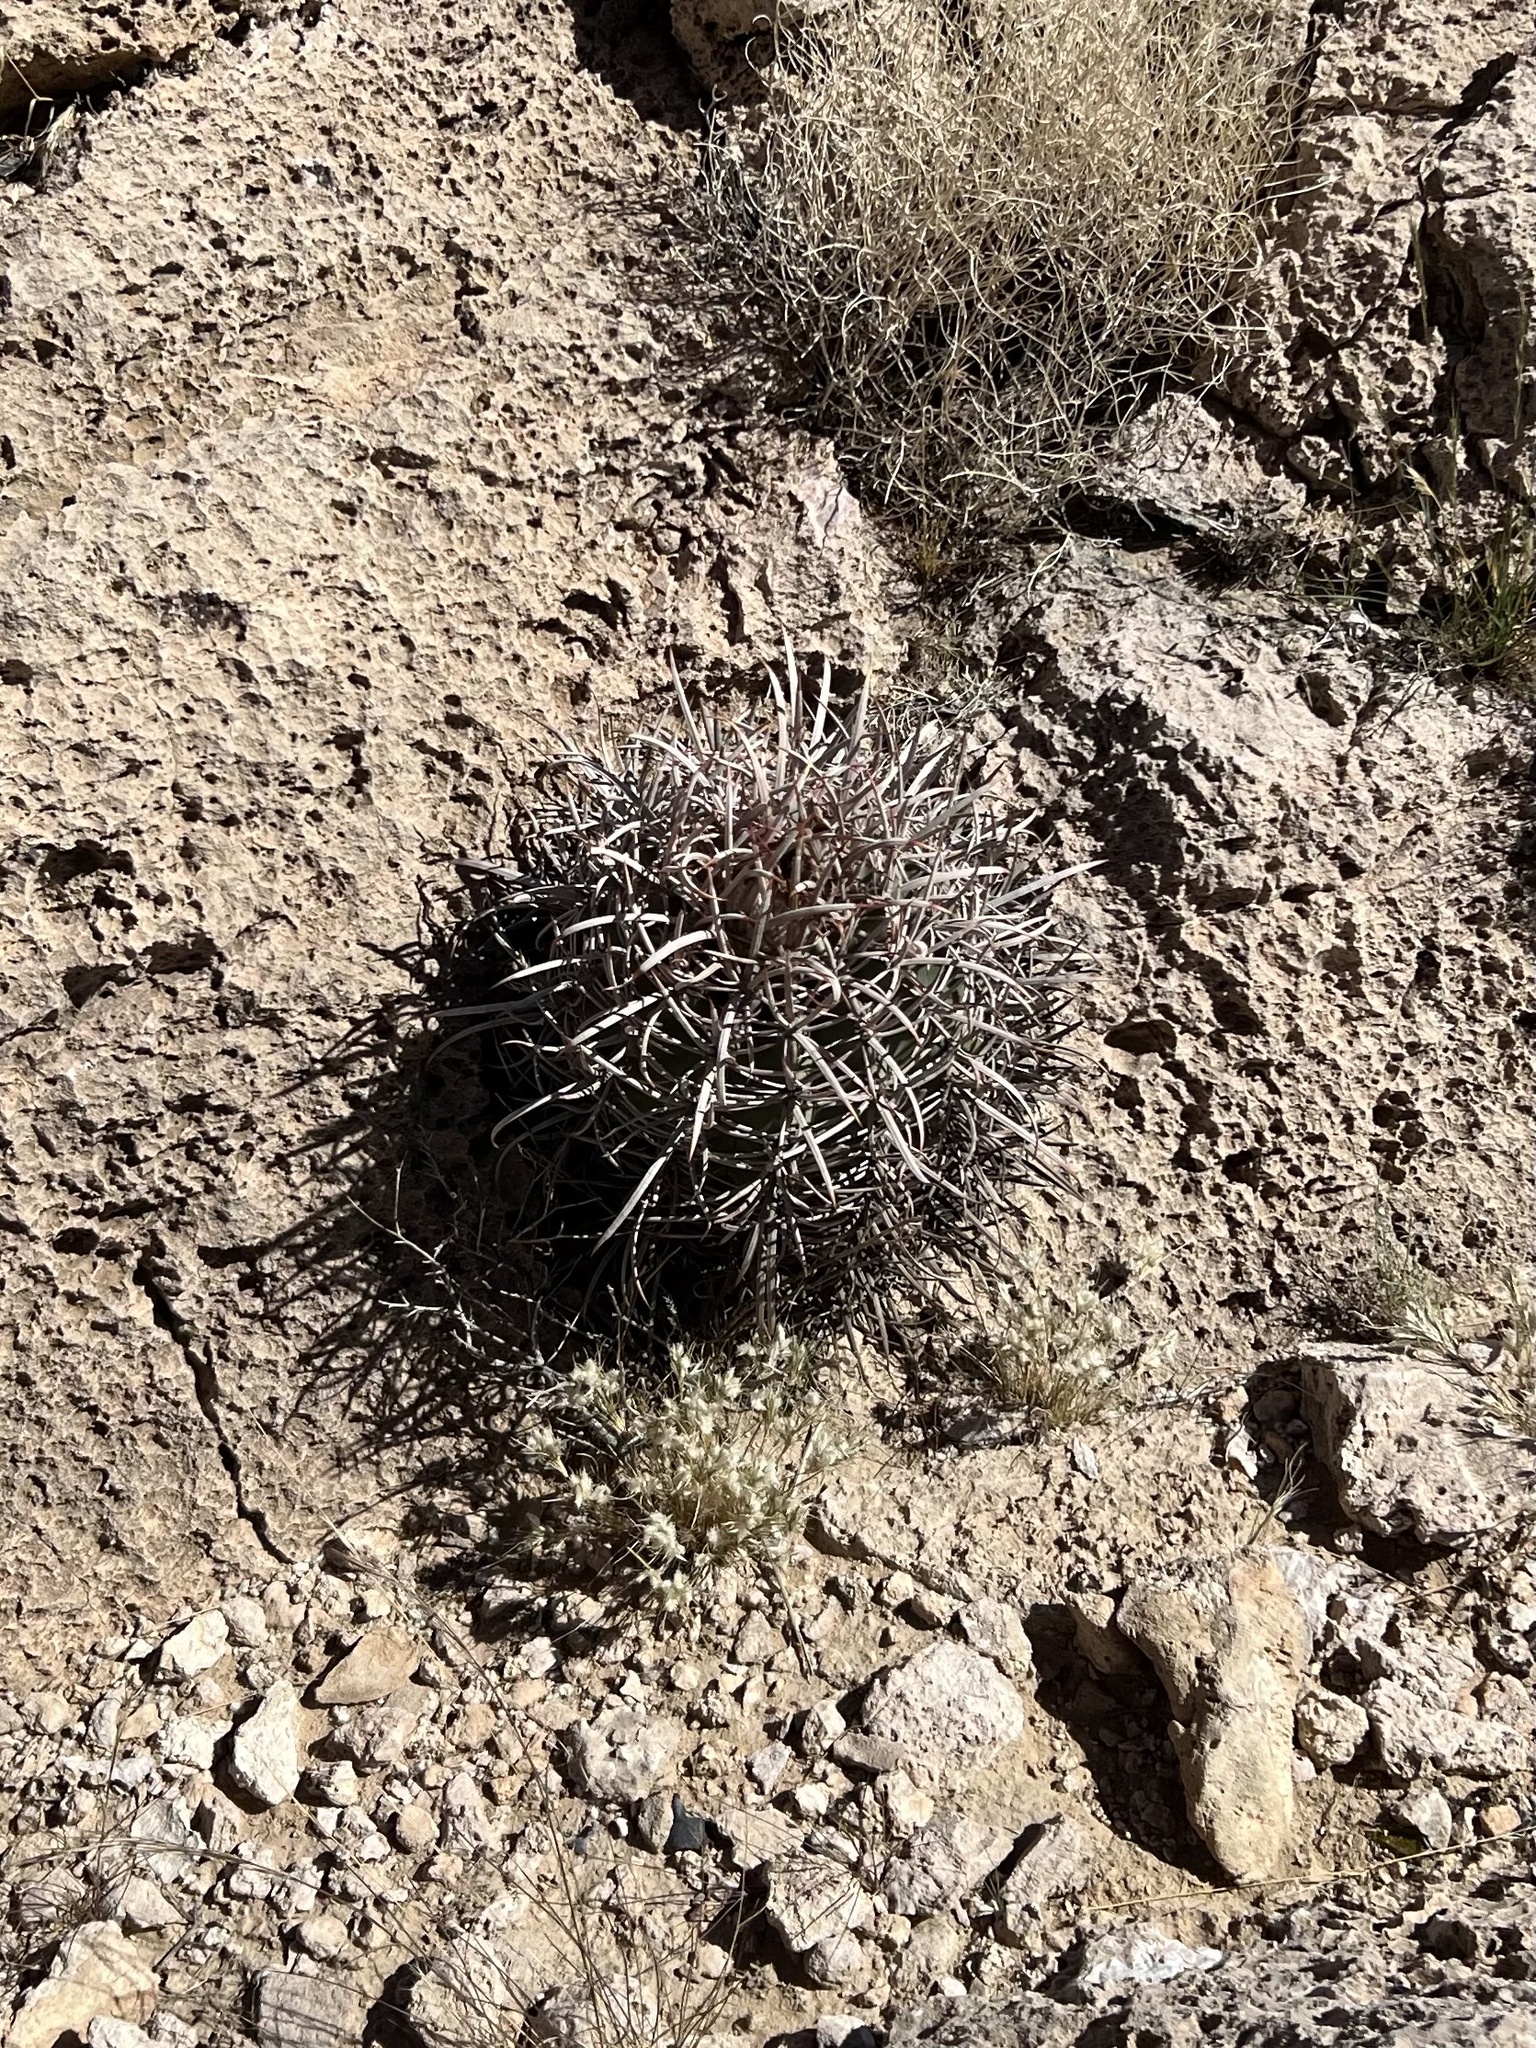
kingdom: Plantae
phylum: Tracheophyta
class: Magnoliopsida
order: Caryophyllales
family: Cactaceae
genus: Echinocactus
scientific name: Echinocactus polycephalus
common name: Cottontop cactus
